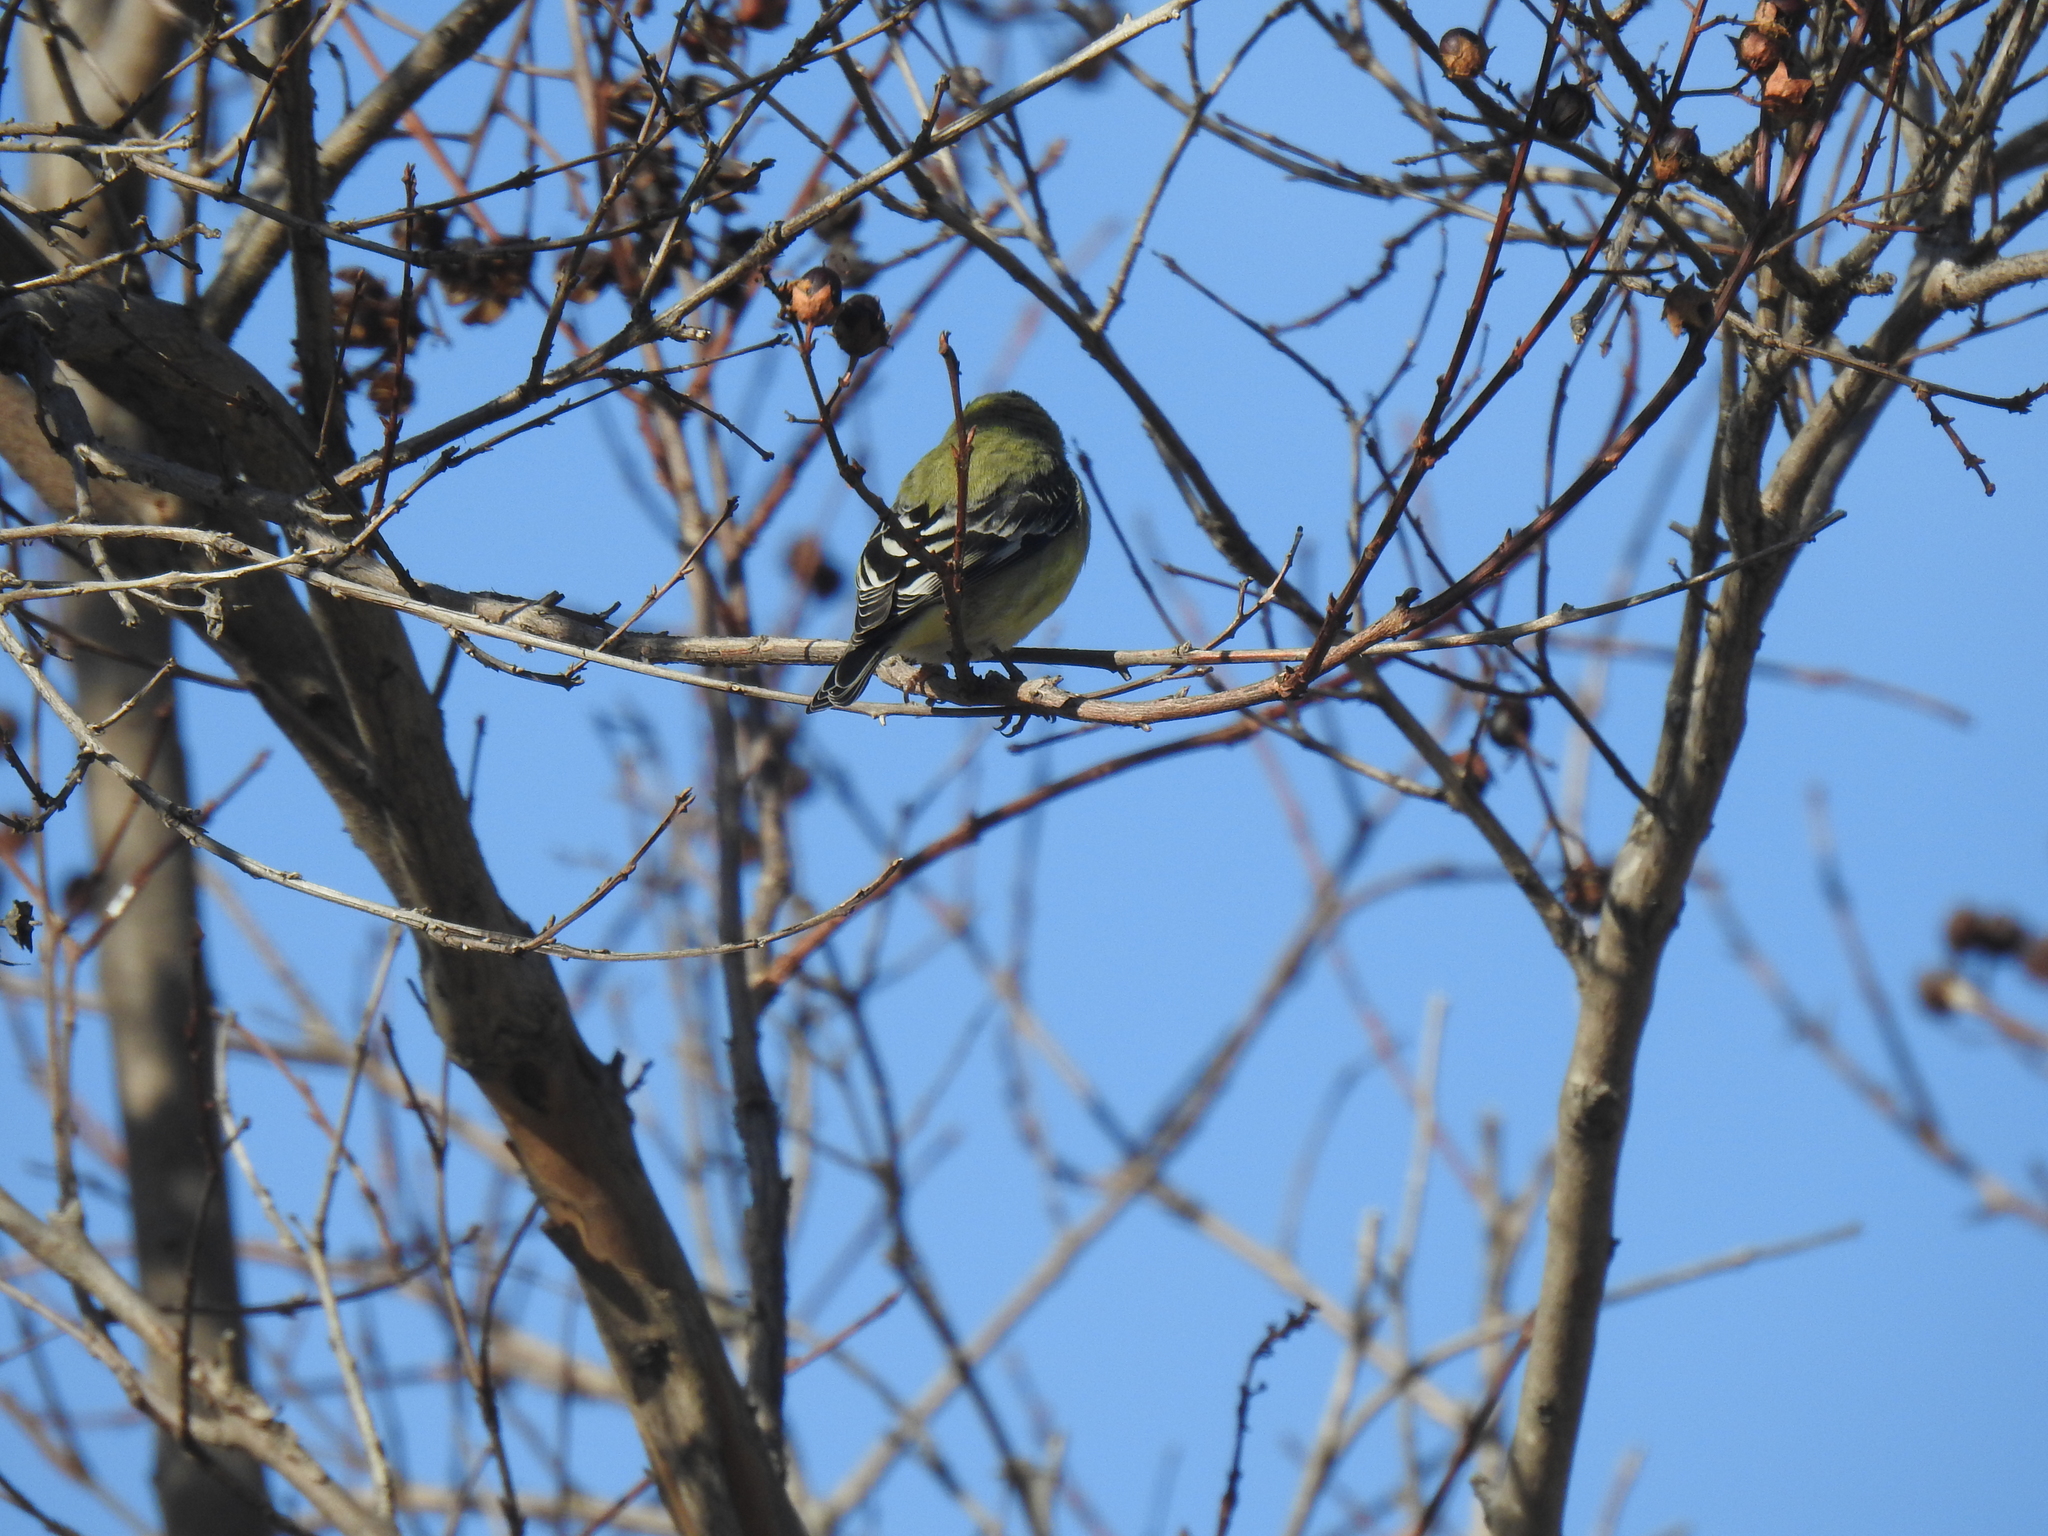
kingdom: Animalia
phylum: Chordata
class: Aves
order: Passeriformes
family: Fringillidae
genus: Spinus
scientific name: Spinus psaltria
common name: Lesser goldfinch
